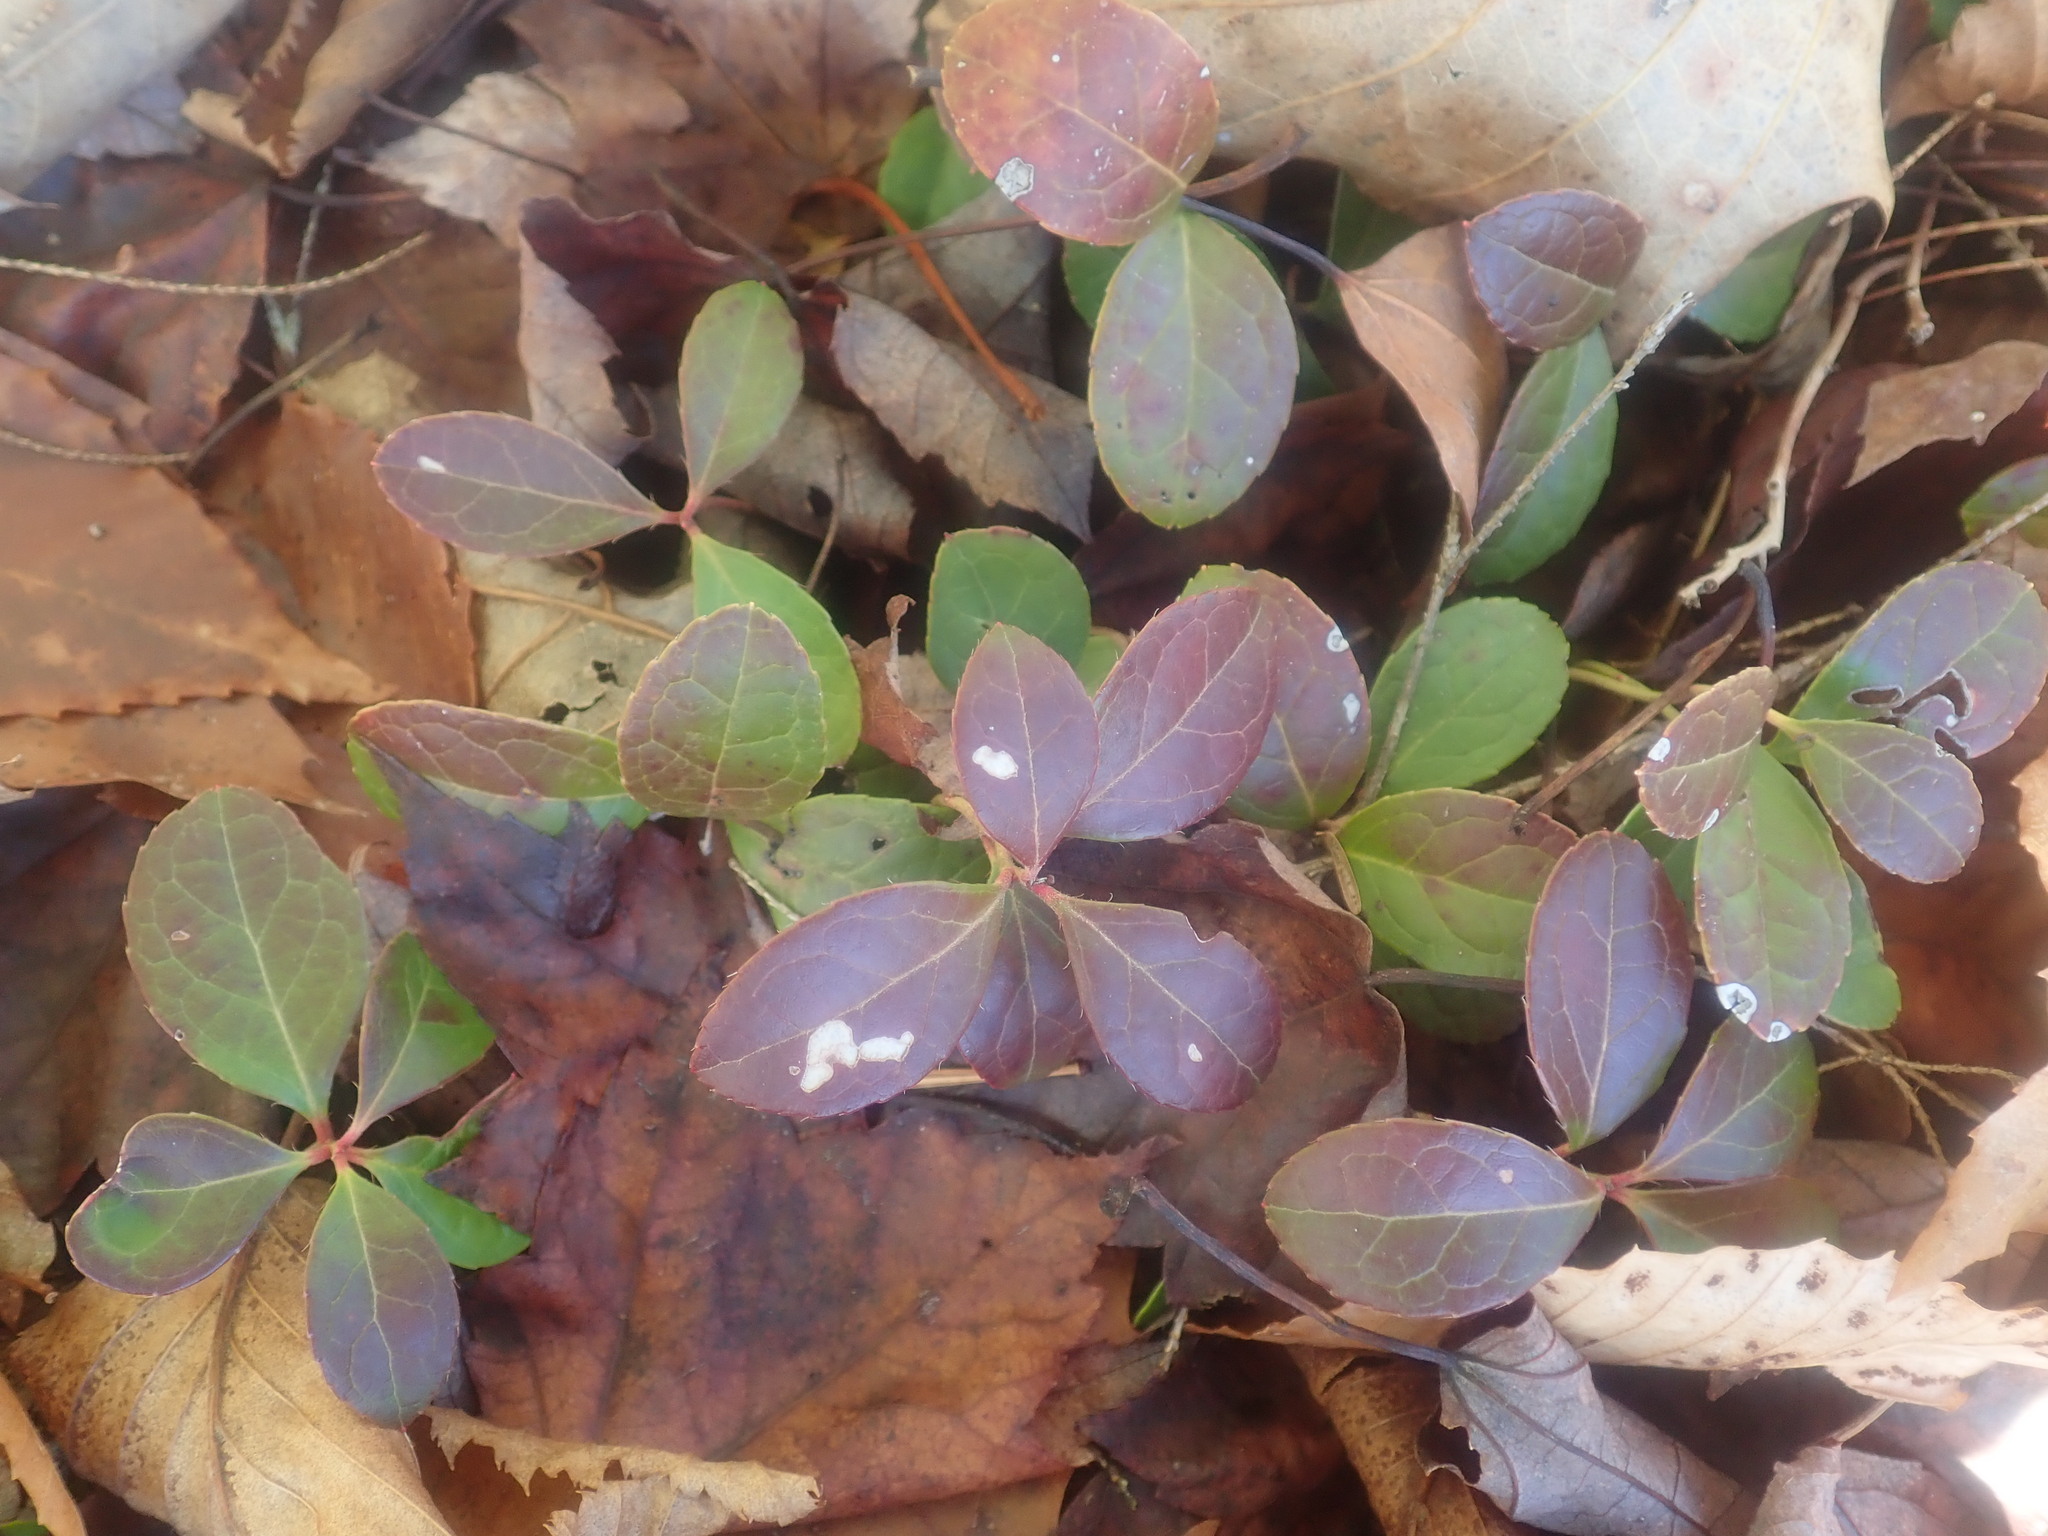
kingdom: Plantae
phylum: Tracheophyta
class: Magnoliopsida
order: Ericales
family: Ericaceae
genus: Gaultheria
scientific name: Gaultheria procumbens
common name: Checkerberry
